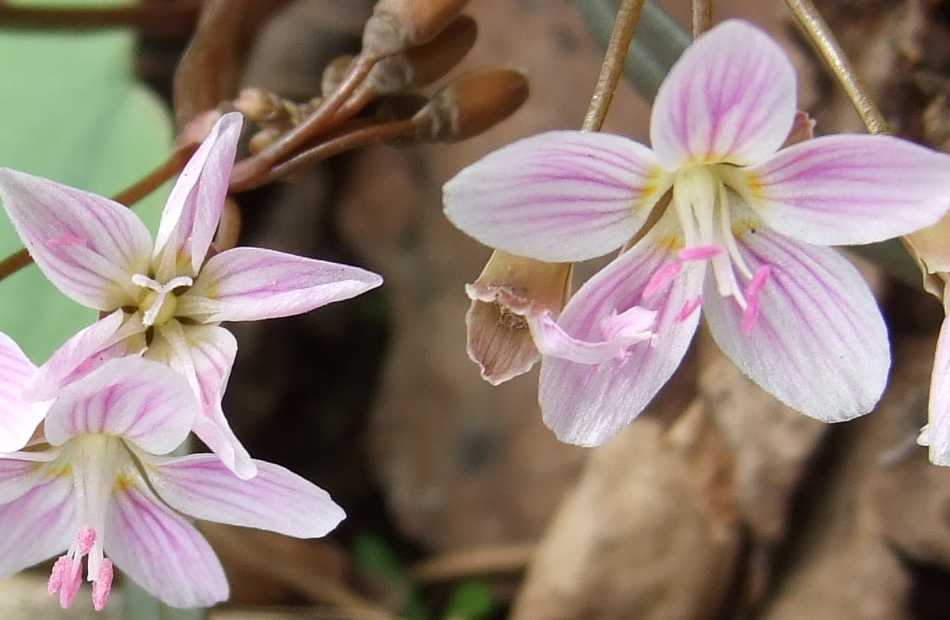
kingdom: Plantae
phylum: Tracheophyta
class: Magnoliopsida
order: Caryophyllales
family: Montiaceae
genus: Claytonia
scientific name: Claytonia virginica
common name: Virginia springbeauty
